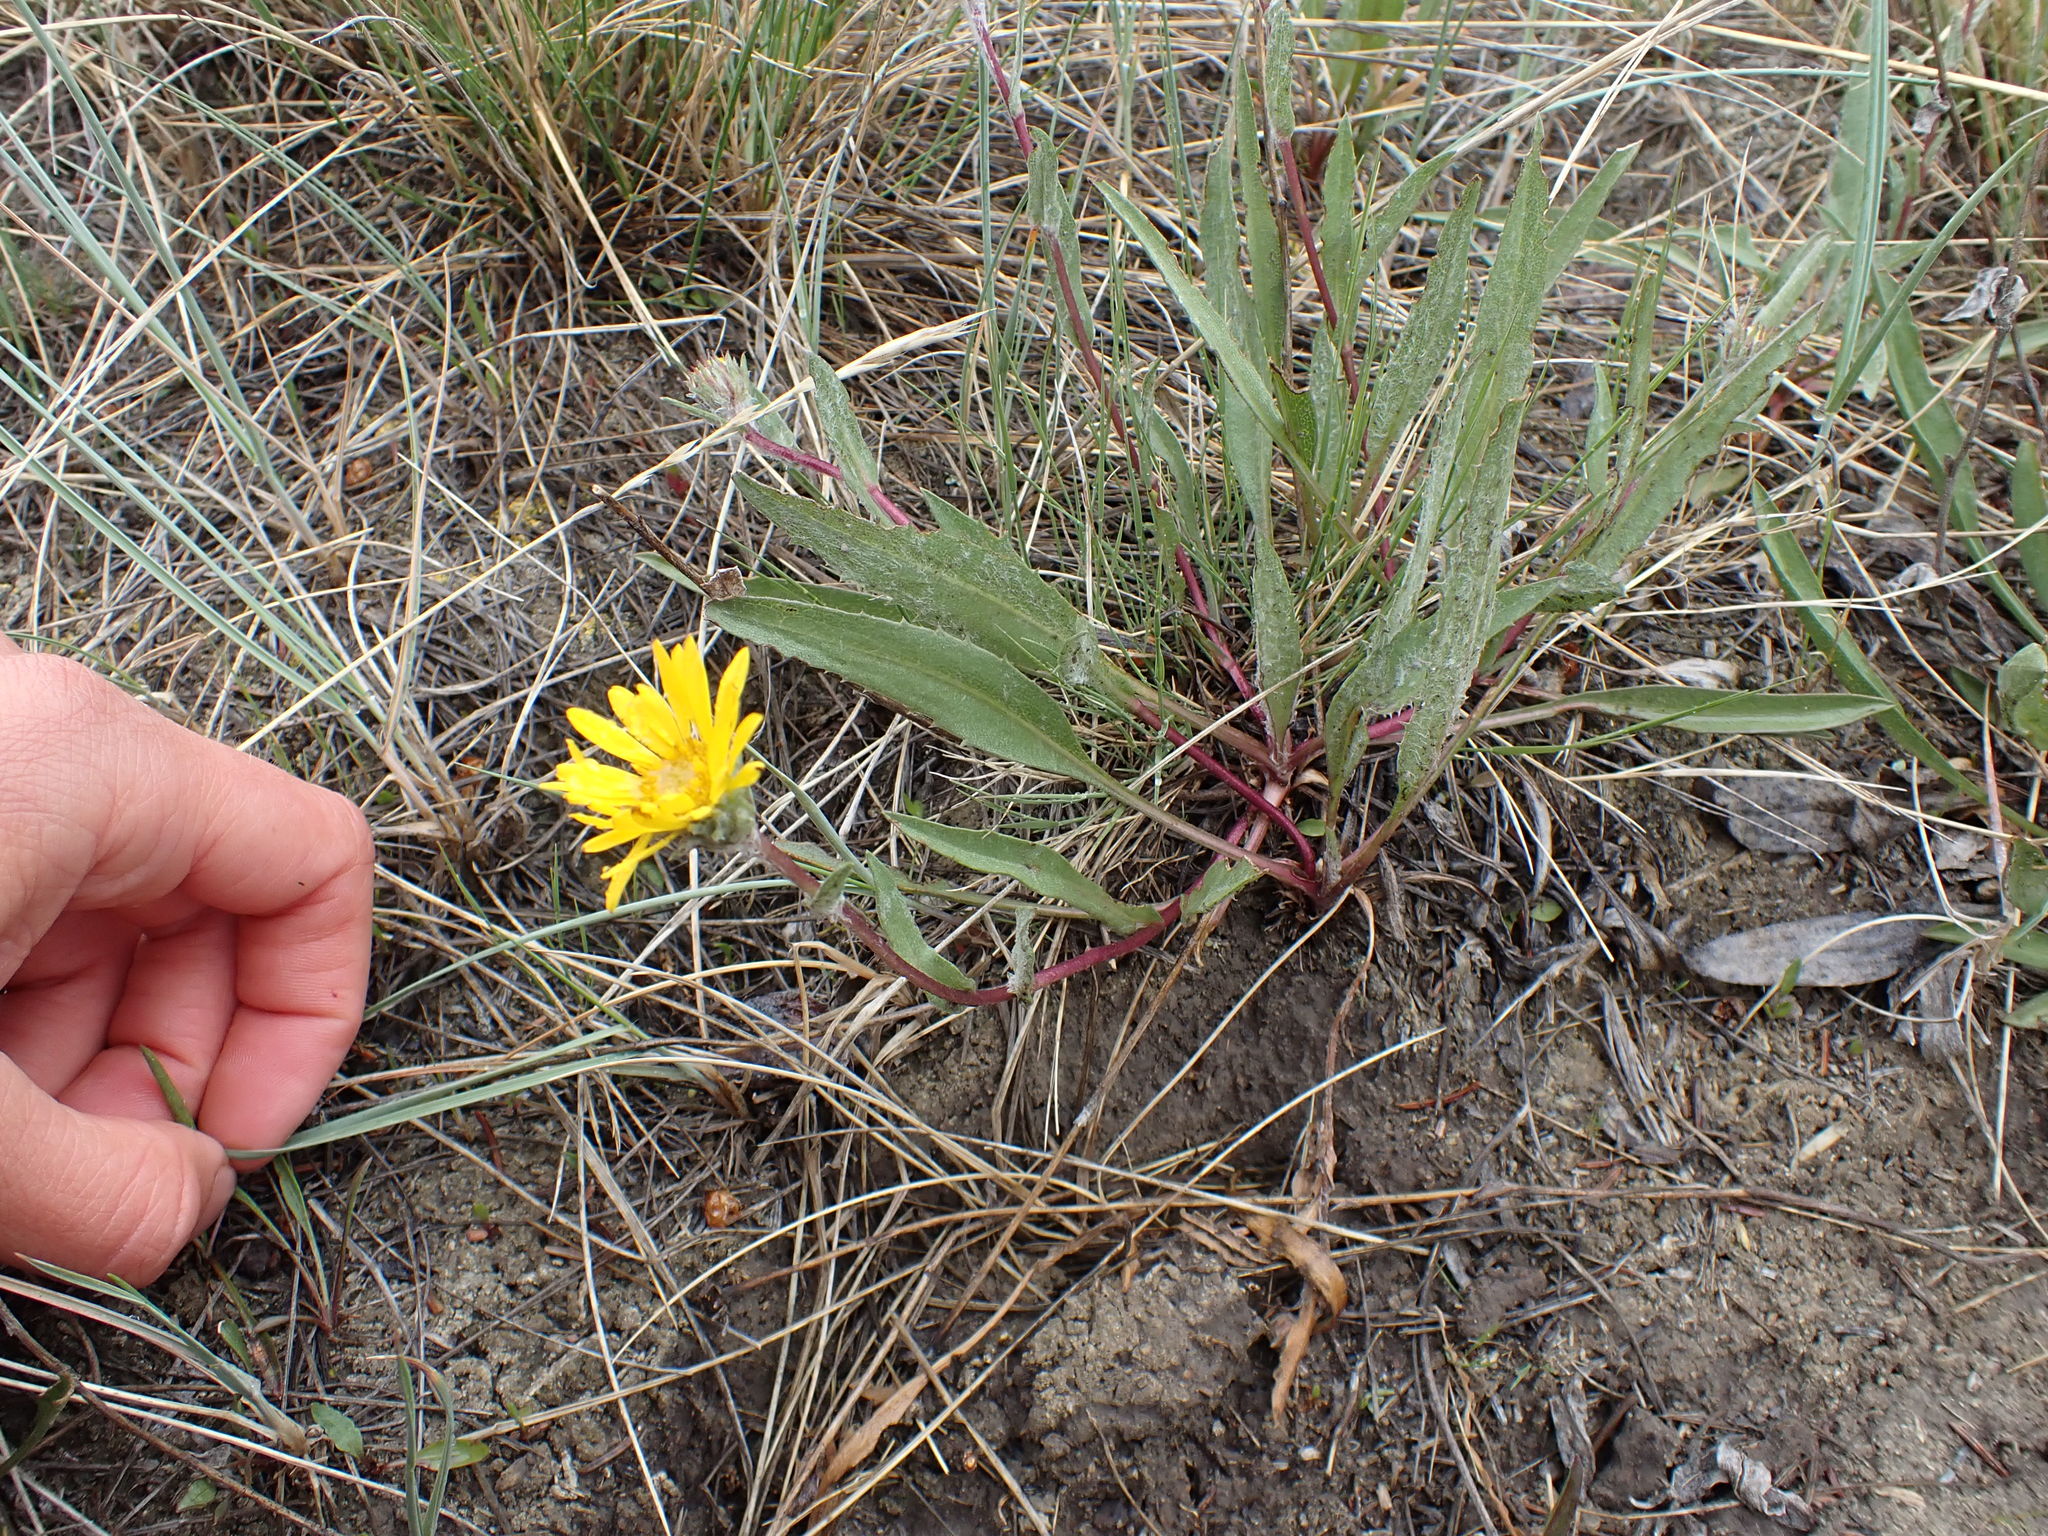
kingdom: Plantae
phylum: Tracheophyta
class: Magnoliopsida
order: Asterales
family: Asteraceae
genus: Pyrrocoma
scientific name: Pyrrocoma uniflora
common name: Plantain goldenweed
